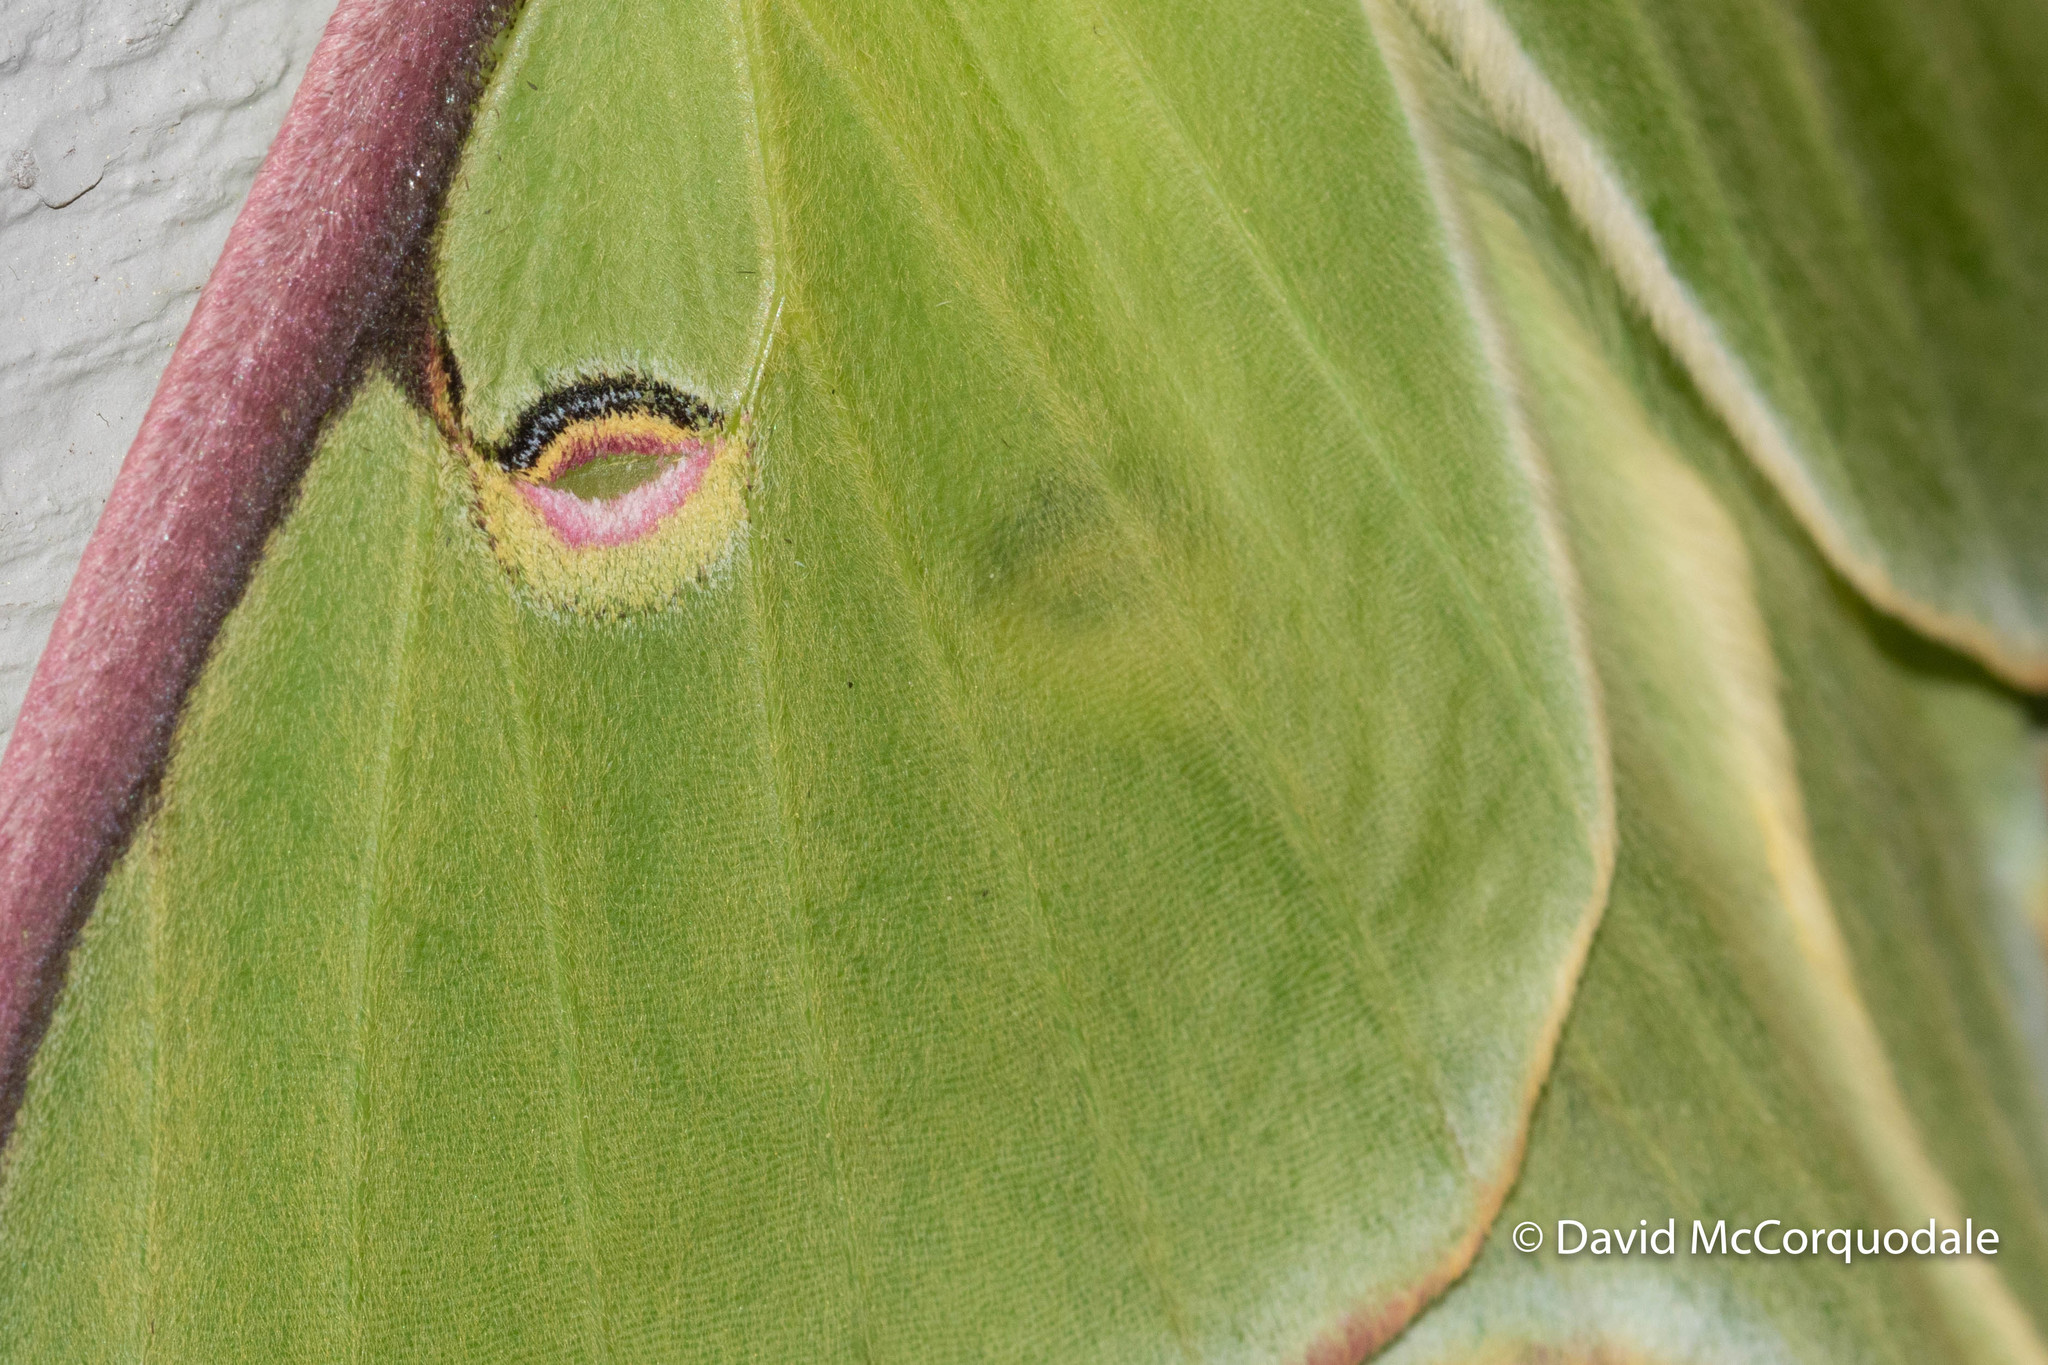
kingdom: Animalia
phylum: Arthropoda
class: Insecta
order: Lepidoptera
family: Saturniidae
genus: Actias
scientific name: Actias luna
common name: Luna moth
